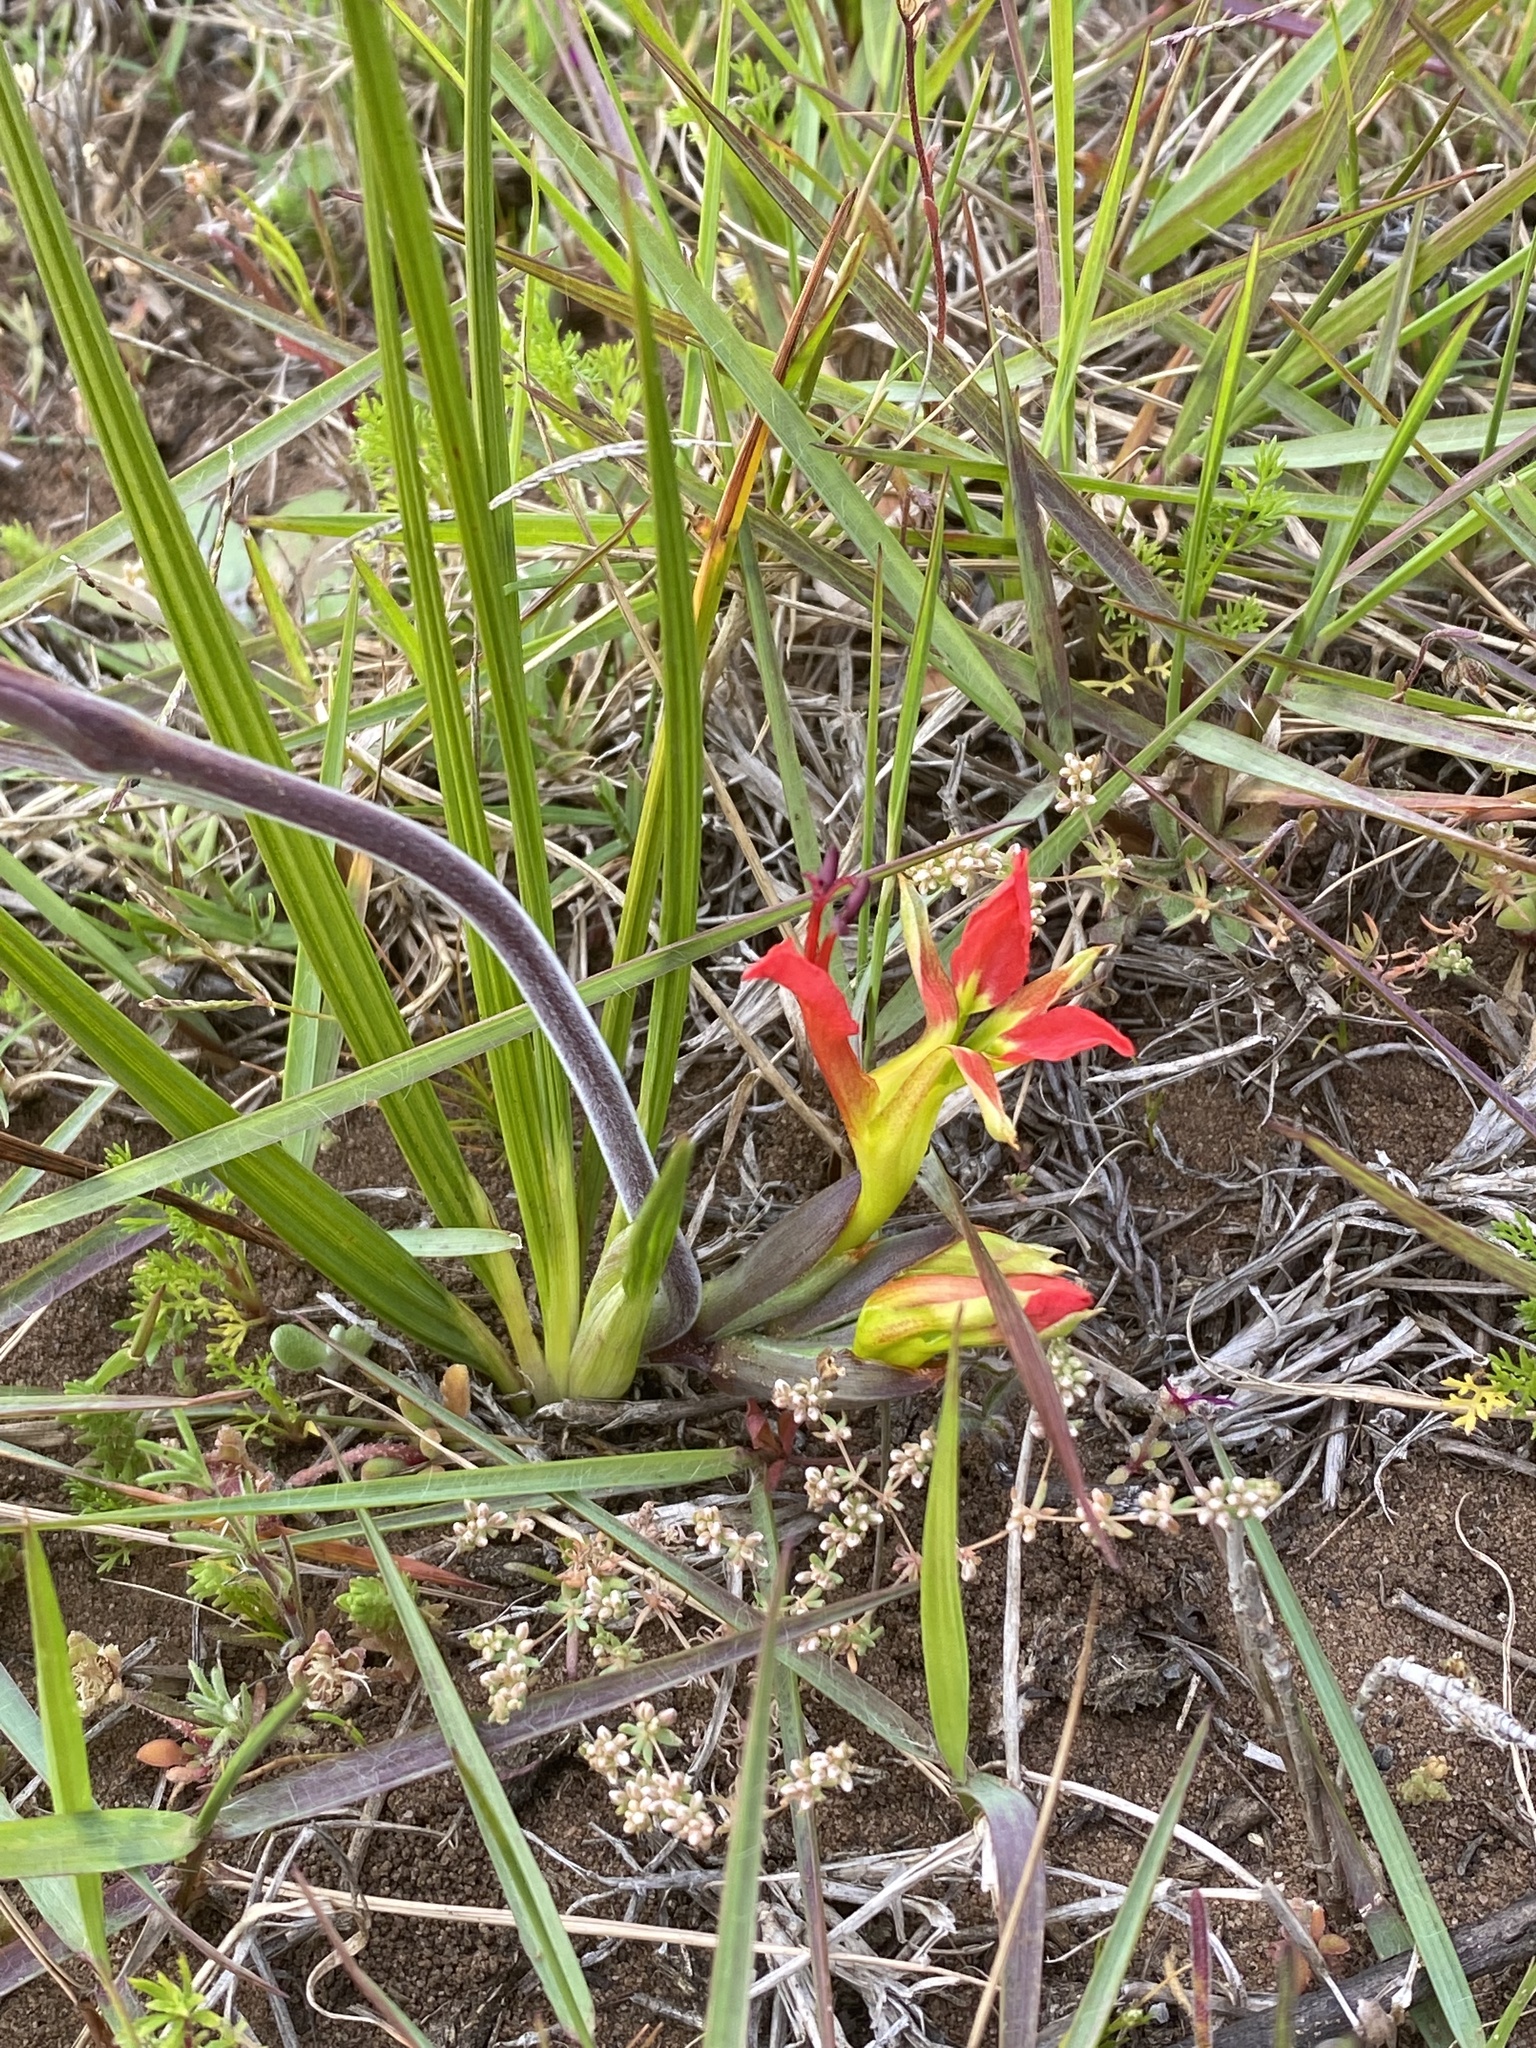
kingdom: Plantae
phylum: Tracheophyta
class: Liliopsida
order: Asparagales
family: Iridaceae
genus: Babiana
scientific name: Babiana ringens
